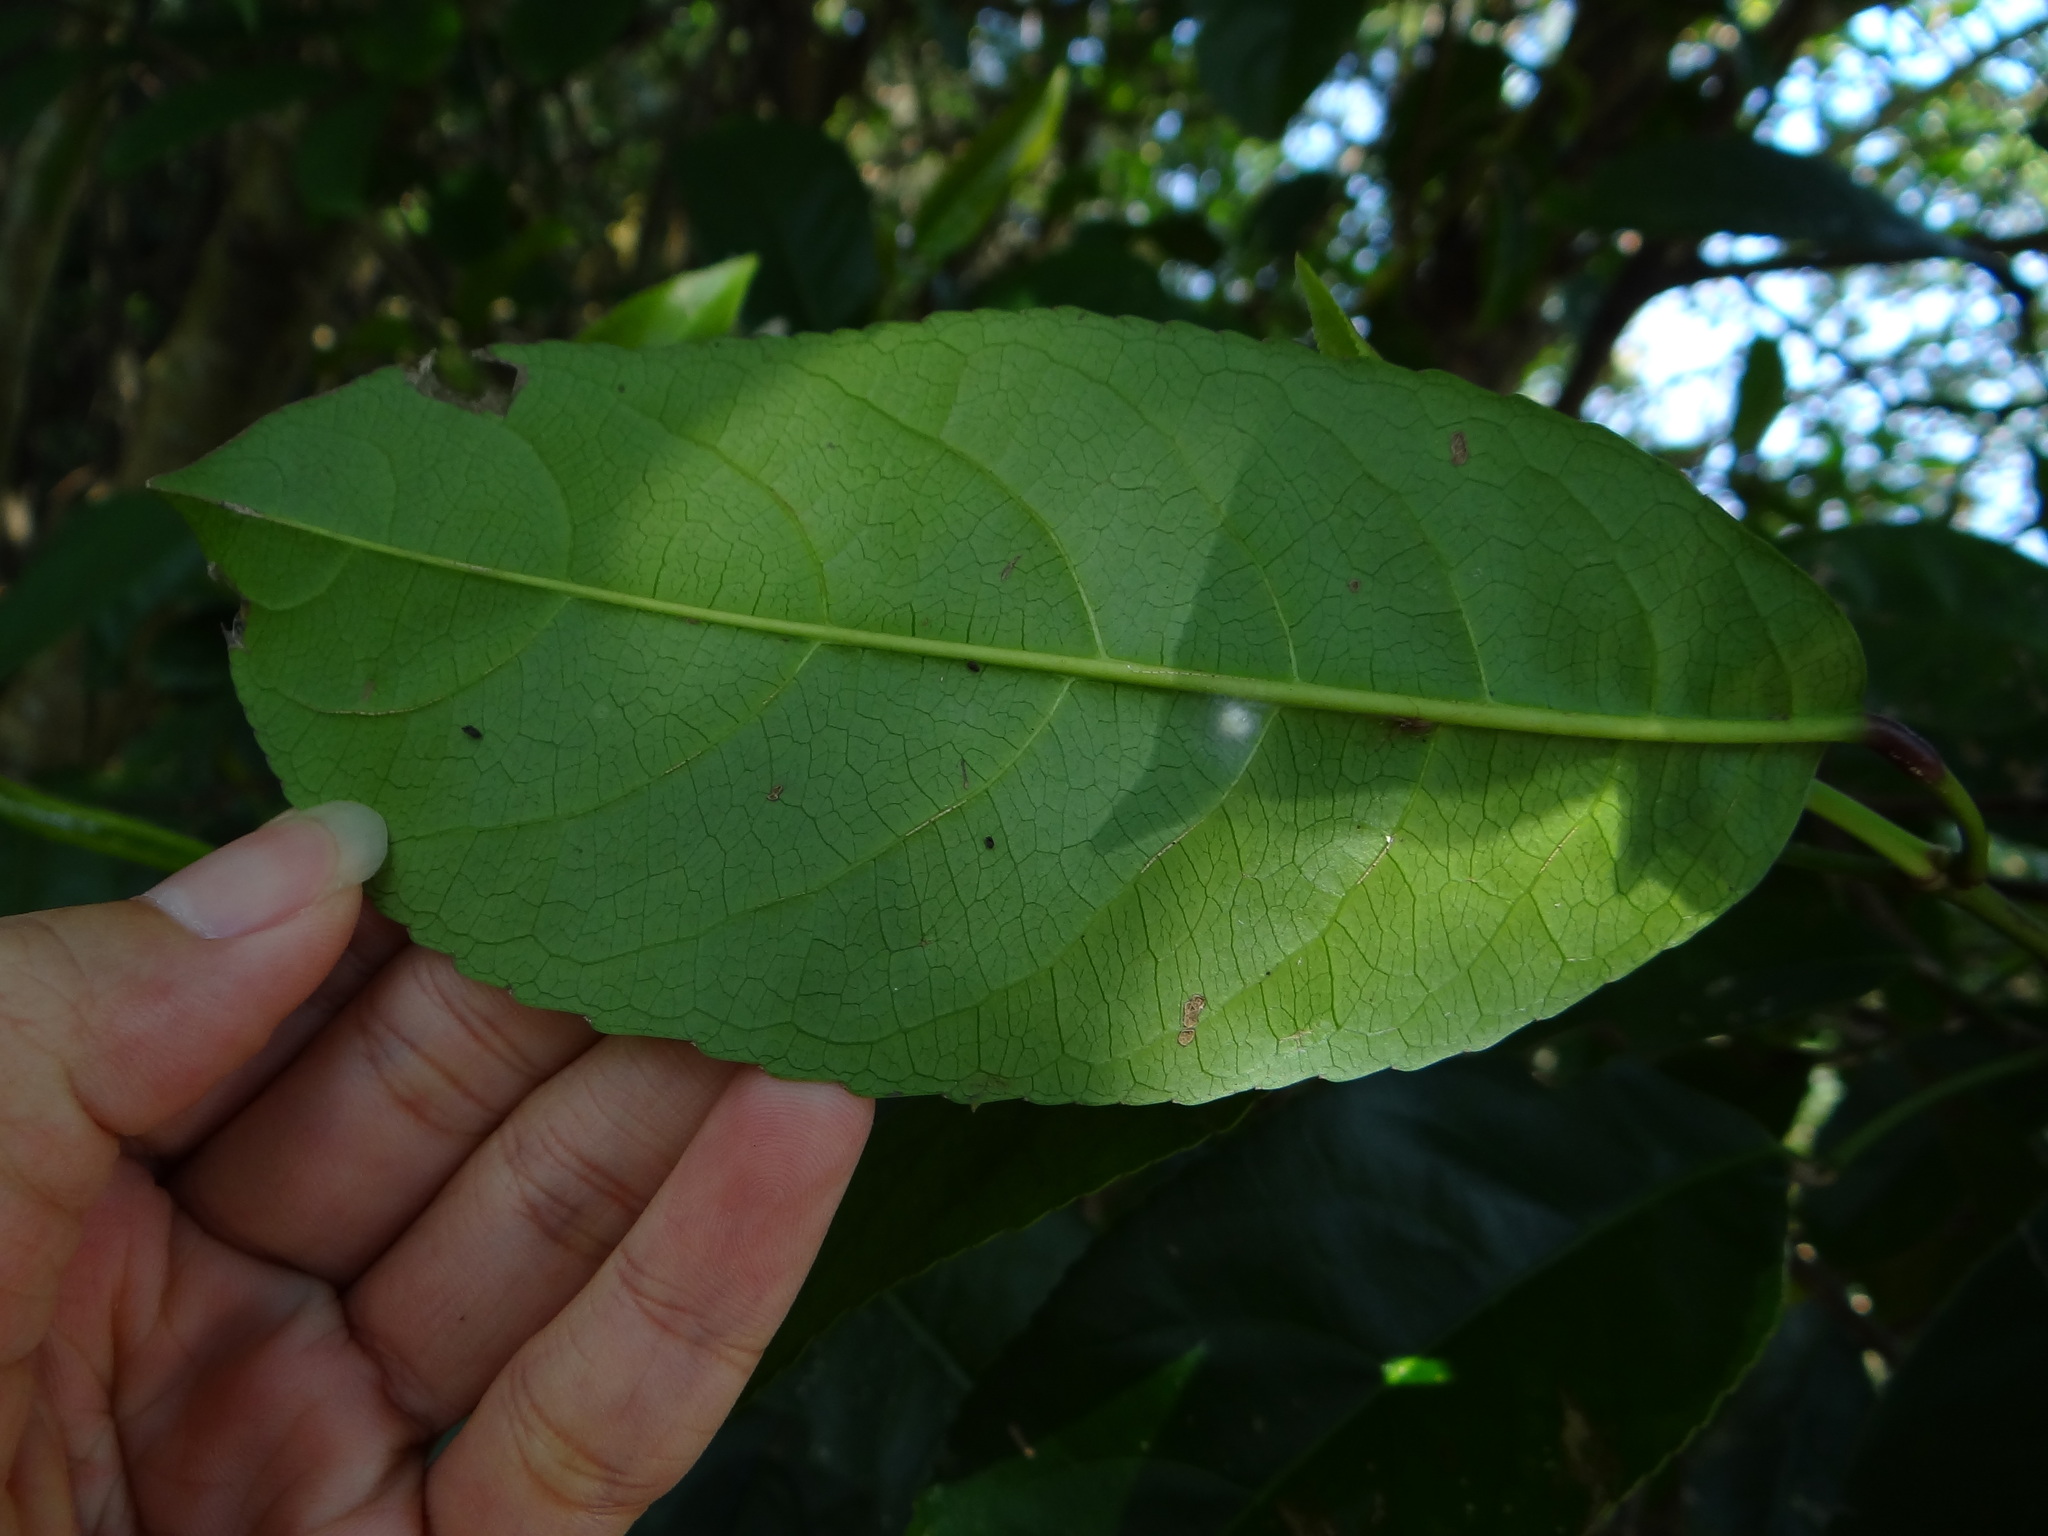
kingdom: Plantae
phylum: Tracheophyta
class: Magnoliopsida
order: Crossosomatales
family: Staphyleaceae
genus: Turpinia
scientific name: Turpinia formosana
